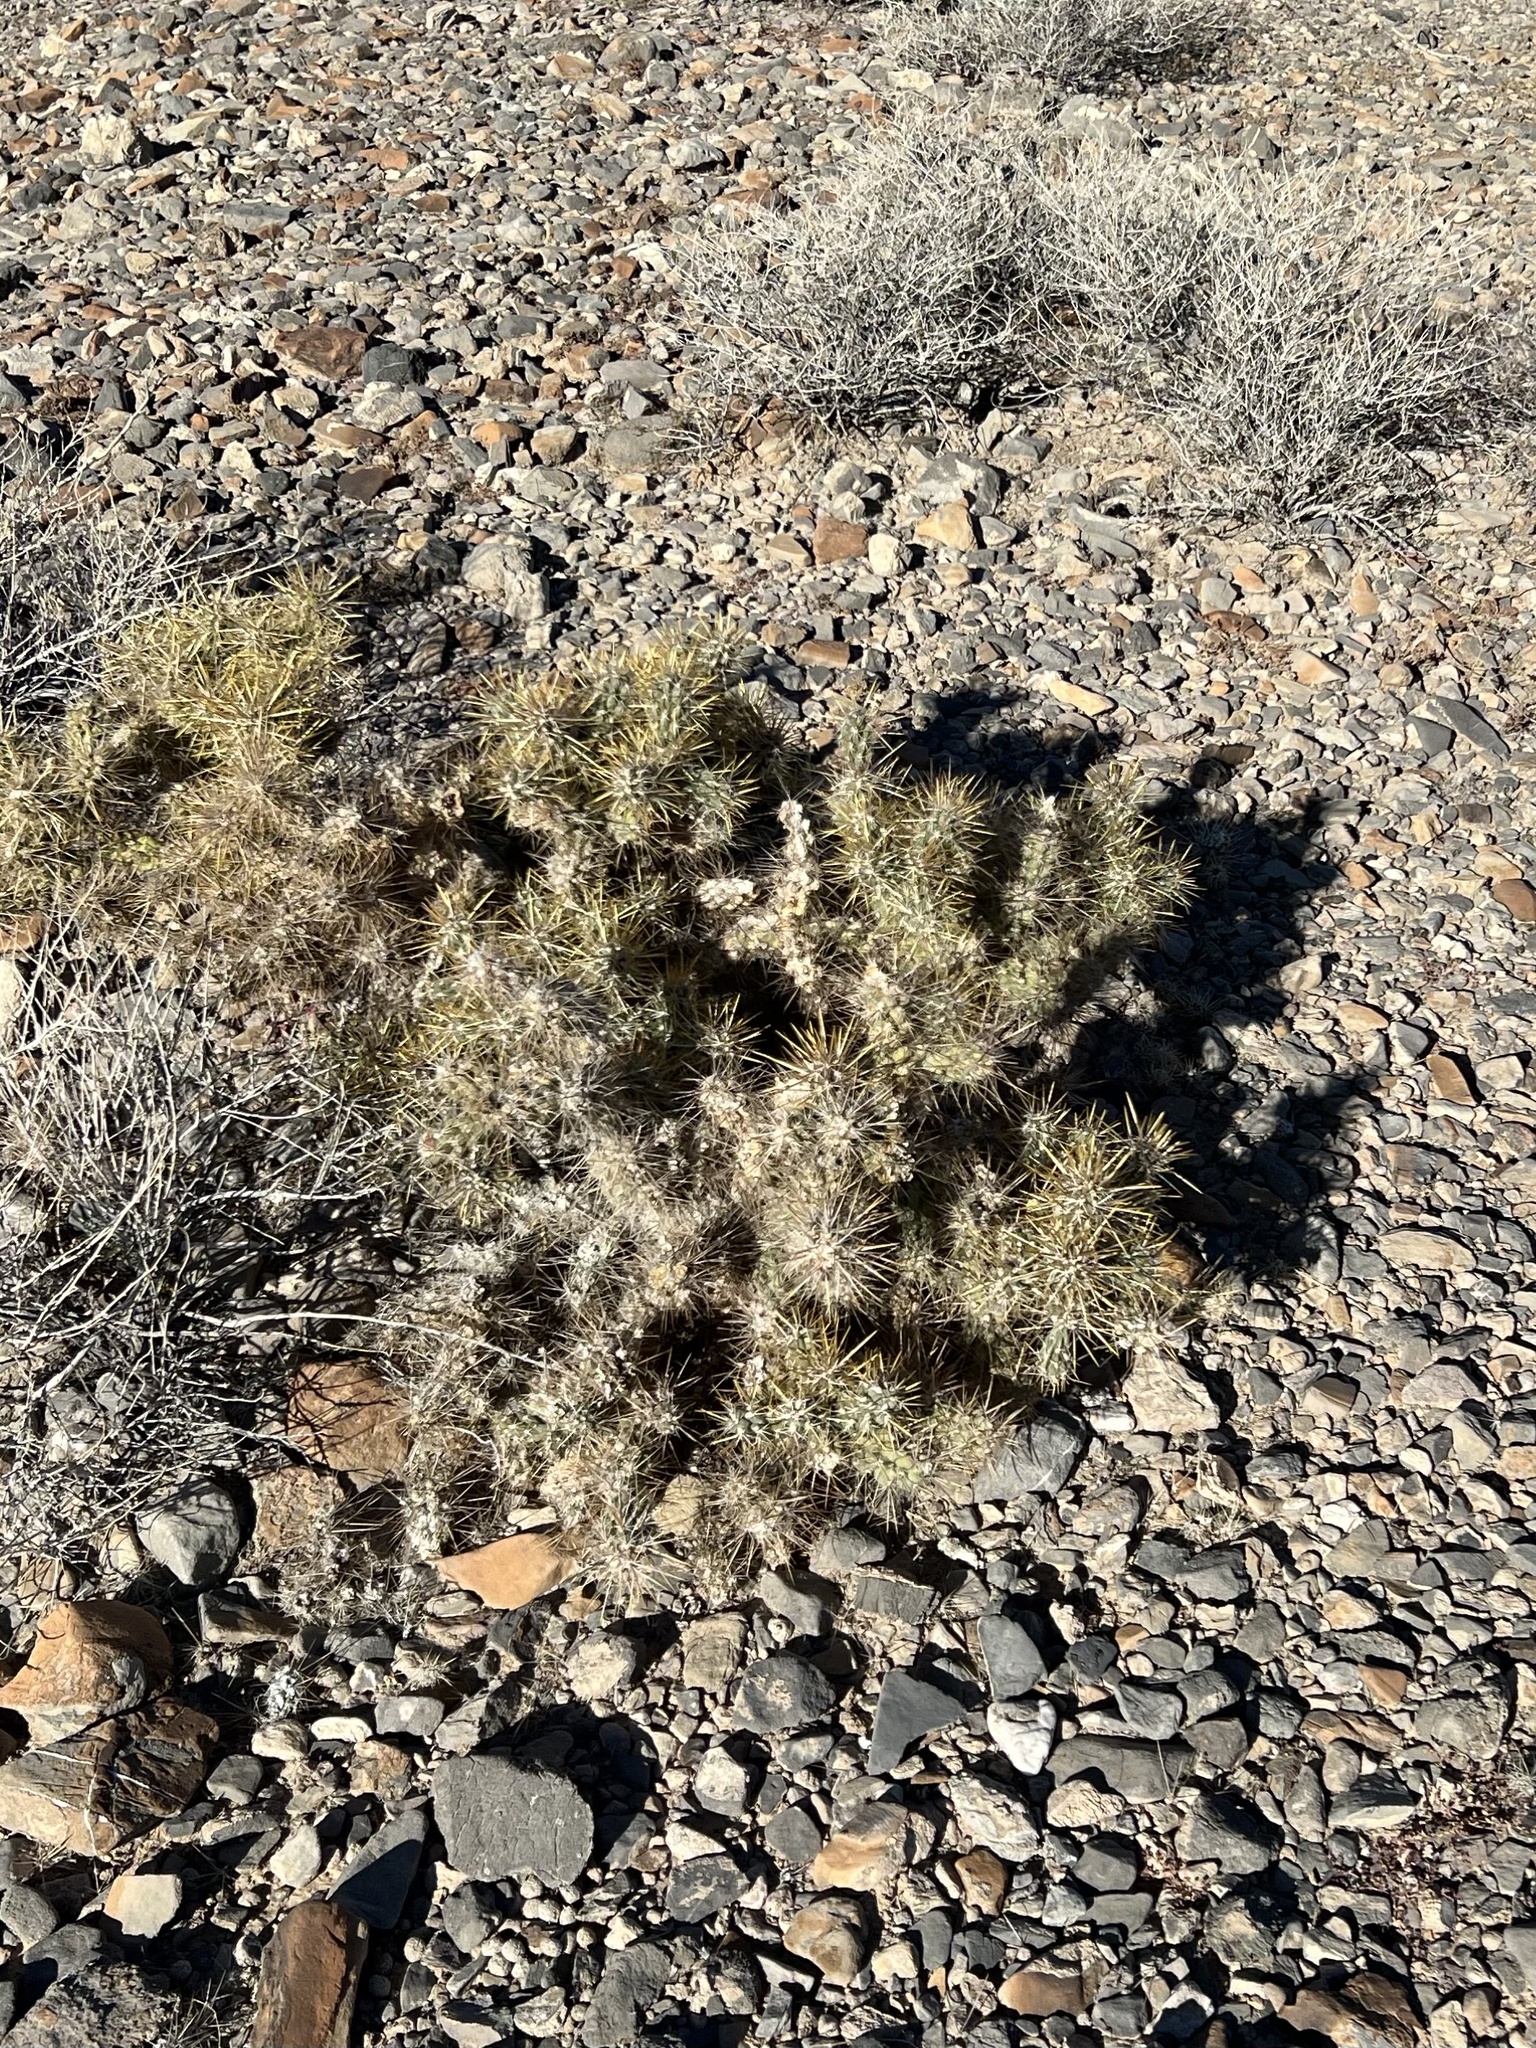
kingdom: Plantae
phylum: Tracheophyta
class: Magnoliopsida
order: Caryophyllales
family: Cactaceae
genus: Cylindropuntia
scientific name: Cylindropuntia echinocarpa
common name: Ground cholla
